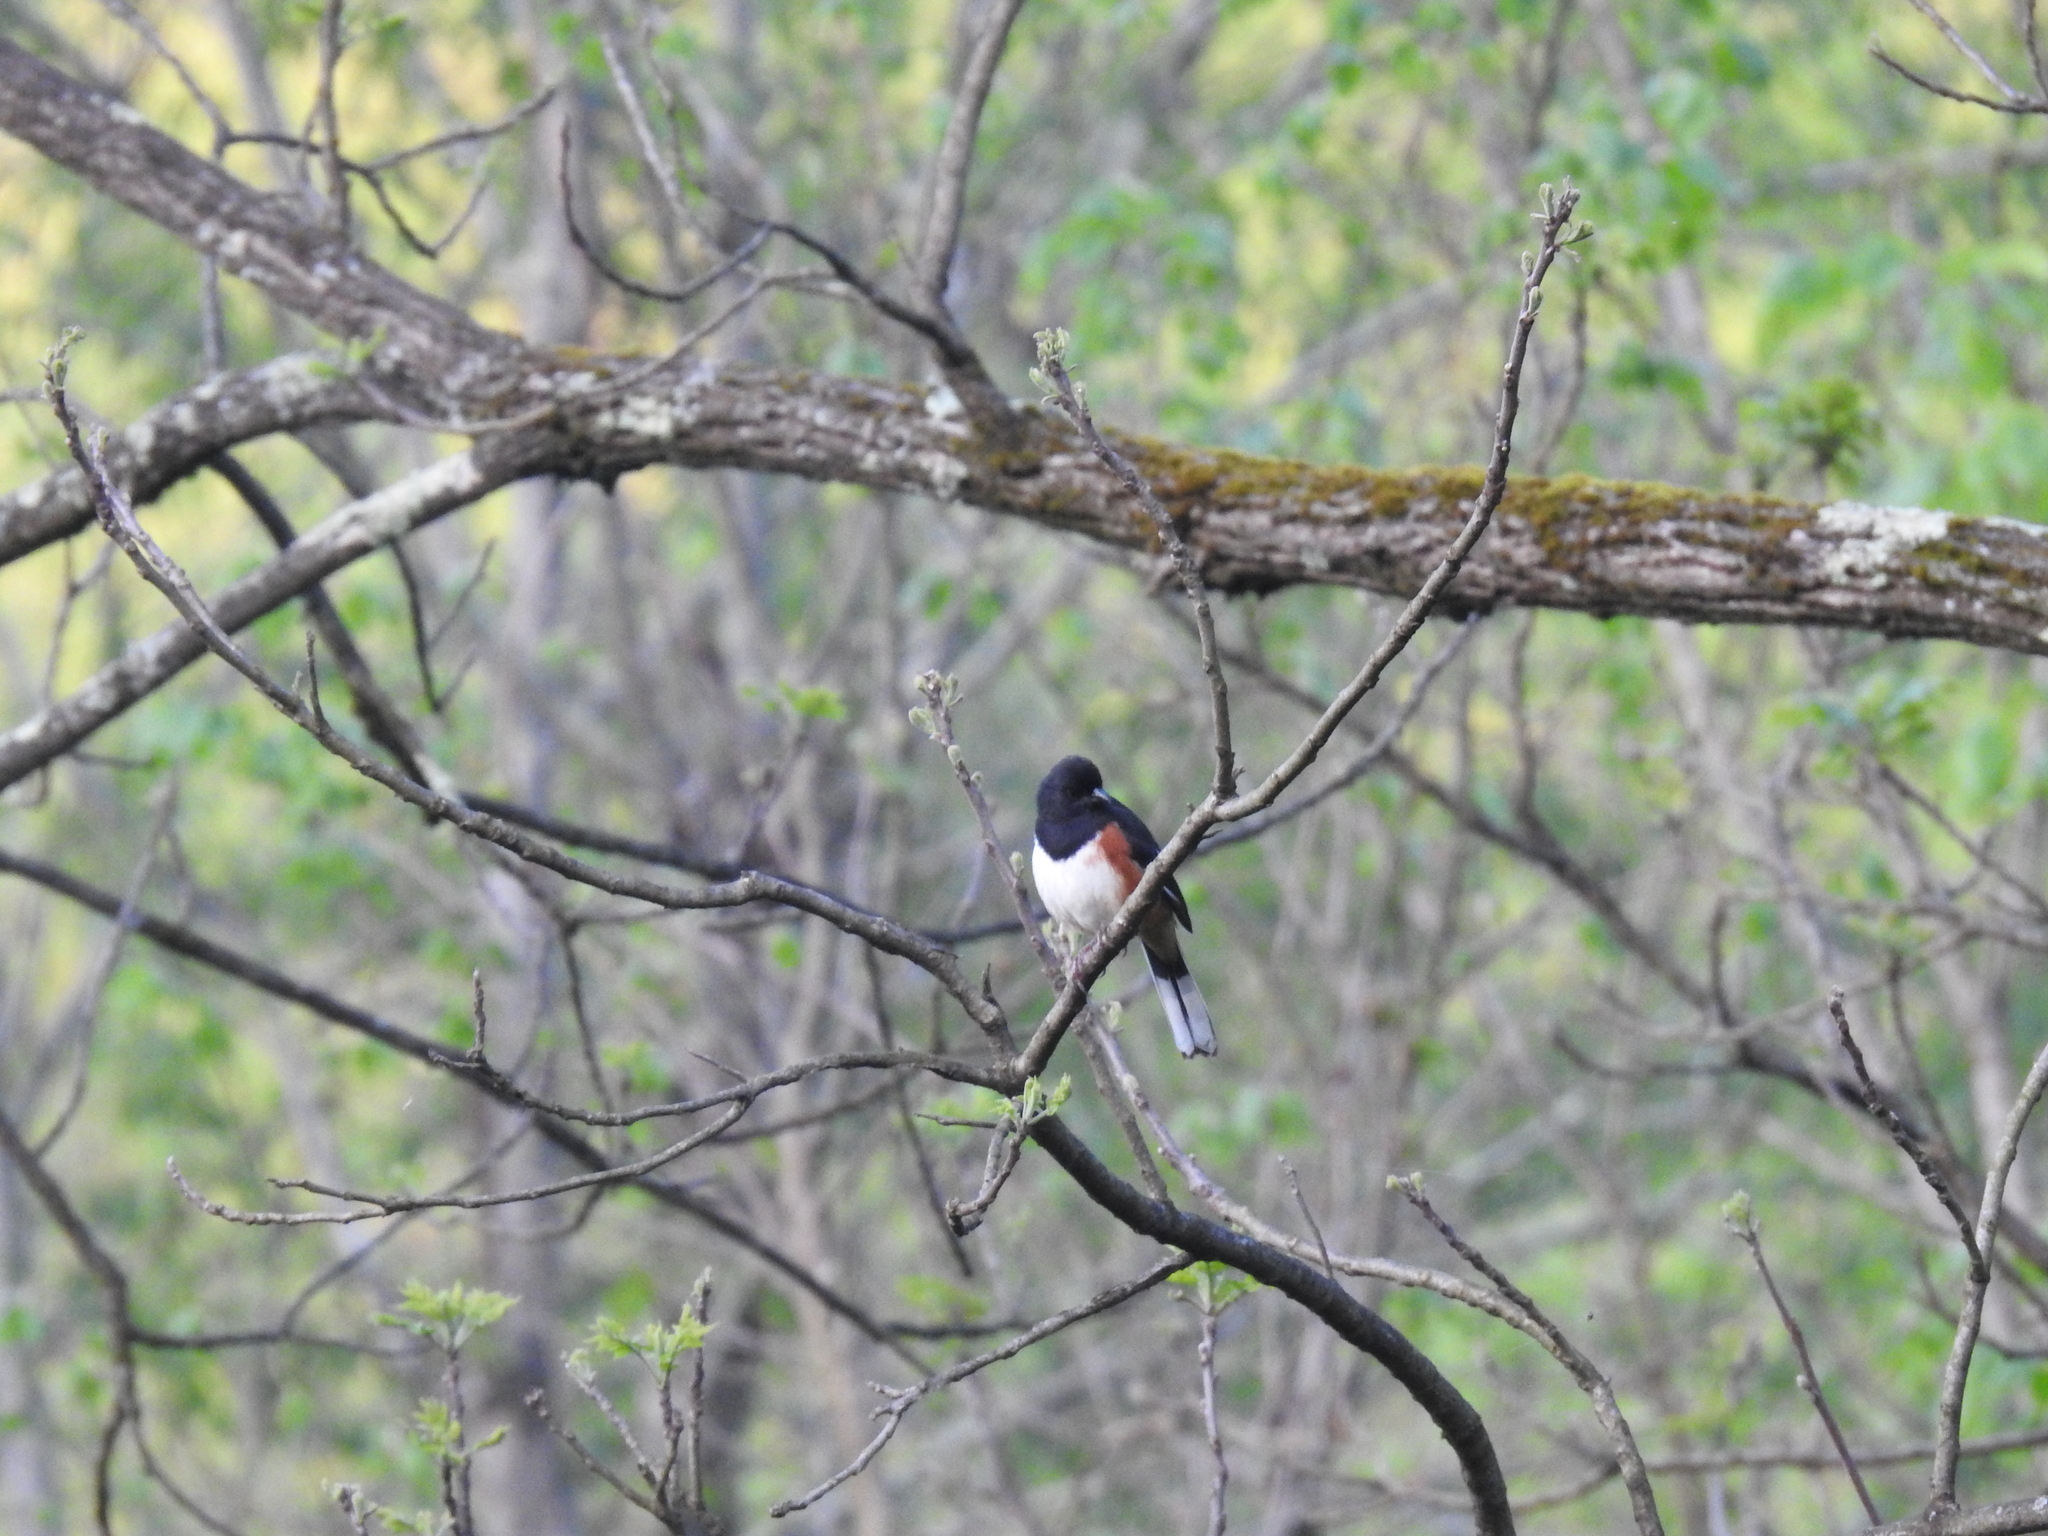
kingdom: Animalia
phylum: Chordata
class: Aves
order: Passeriformes
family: Passerellidae
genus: Pipilo
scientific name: Pipilo erythrophthalmus
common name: Eastern towhee
